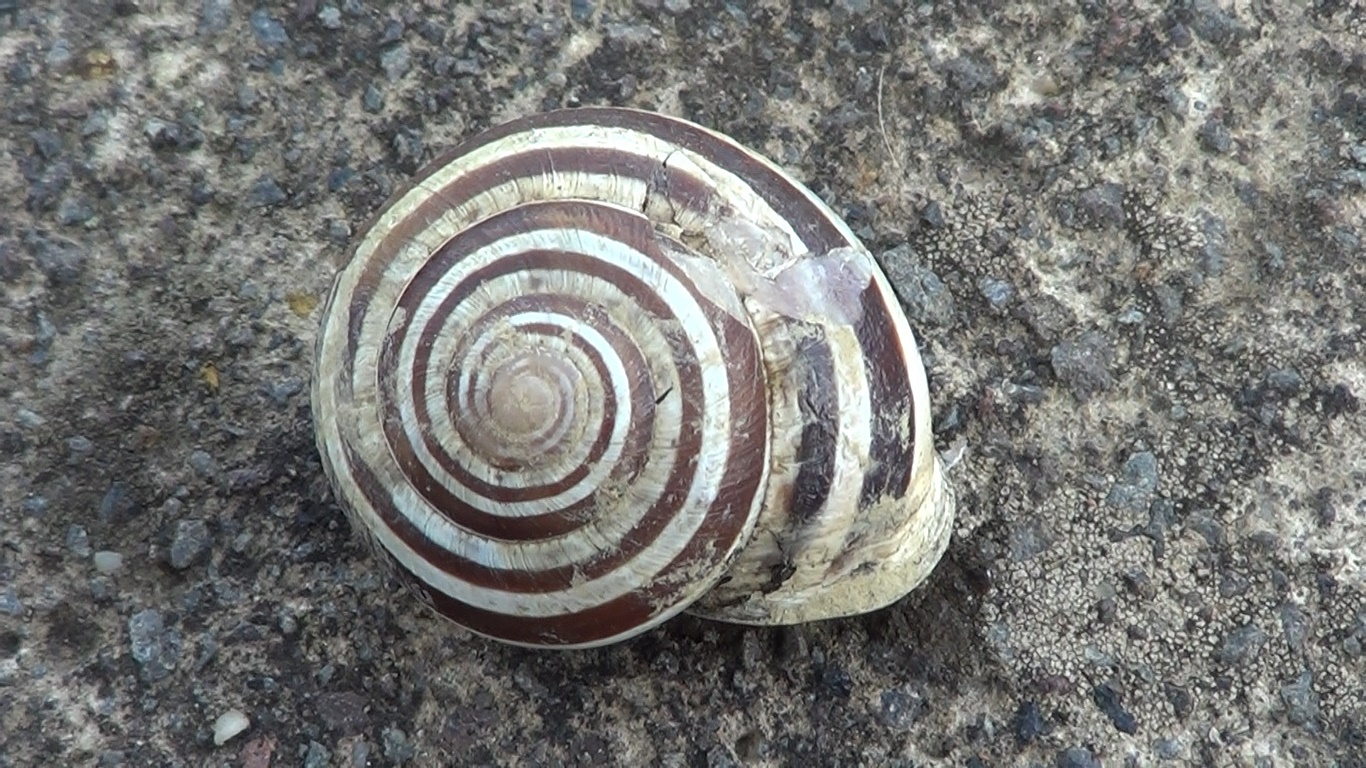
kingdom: Animalia
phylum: Mollusca
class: Gastropoda
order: Stylommatophora
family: Helicidae
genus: Eobania
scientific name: Eobania vermiculata
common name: Chocolateband snail
